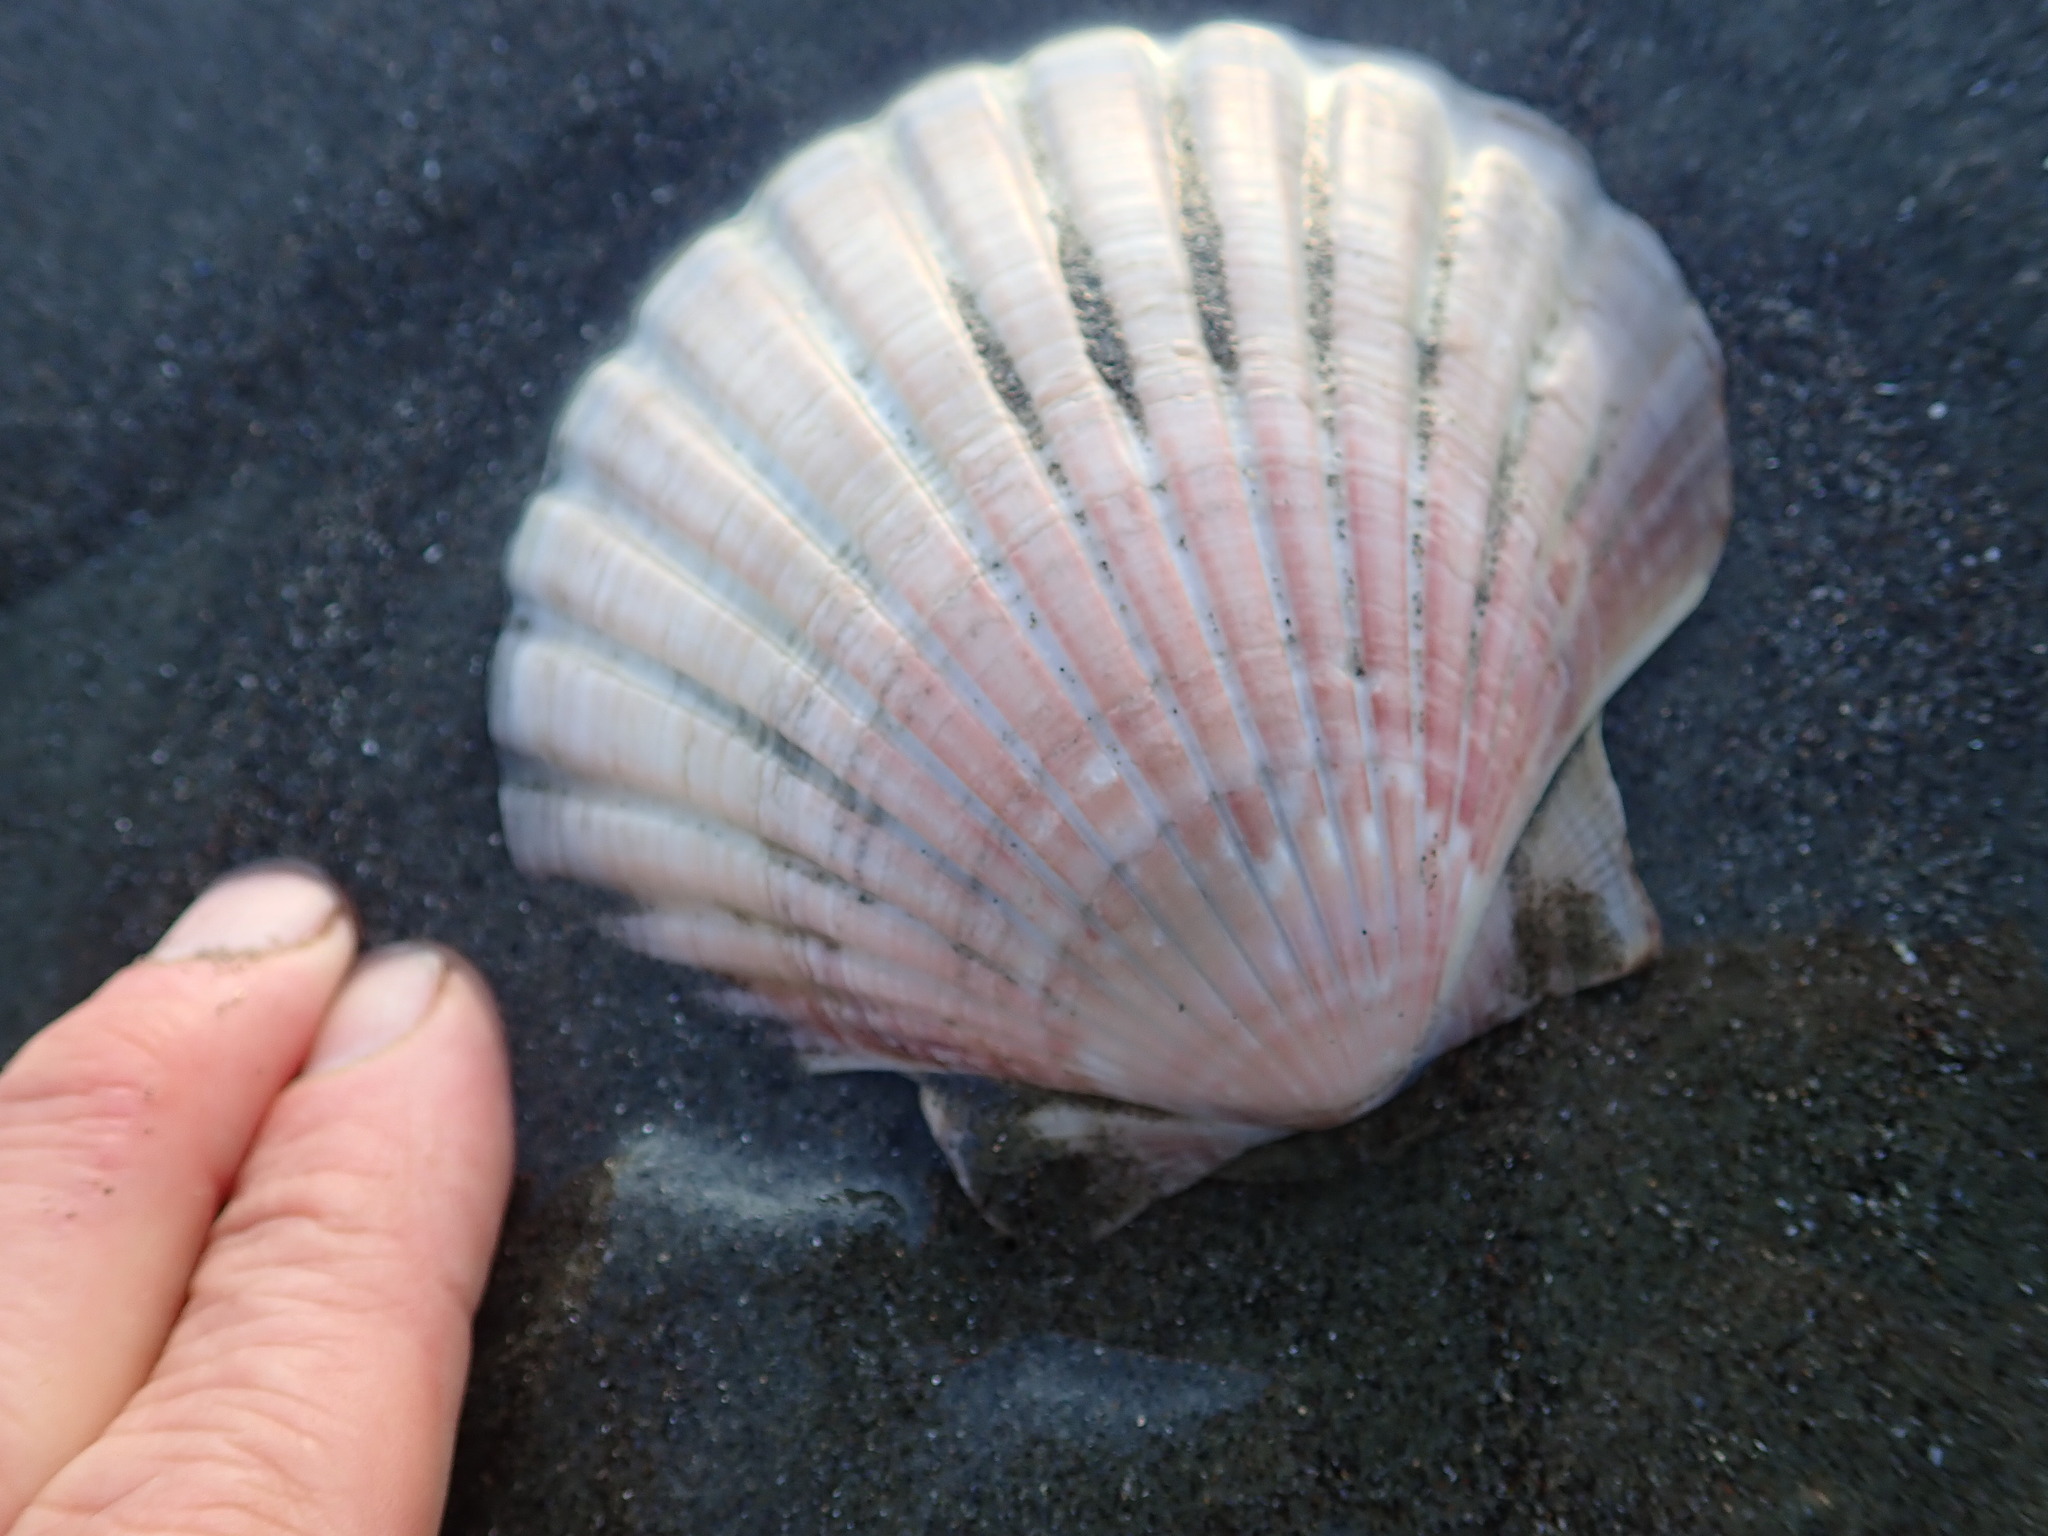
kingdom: Animalia
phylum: Mollusca
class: Bivalvia
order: Pectinida
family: Pectinidae
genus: Pecten
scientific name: Pecten novaezelandiae
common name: New zealand scallop
